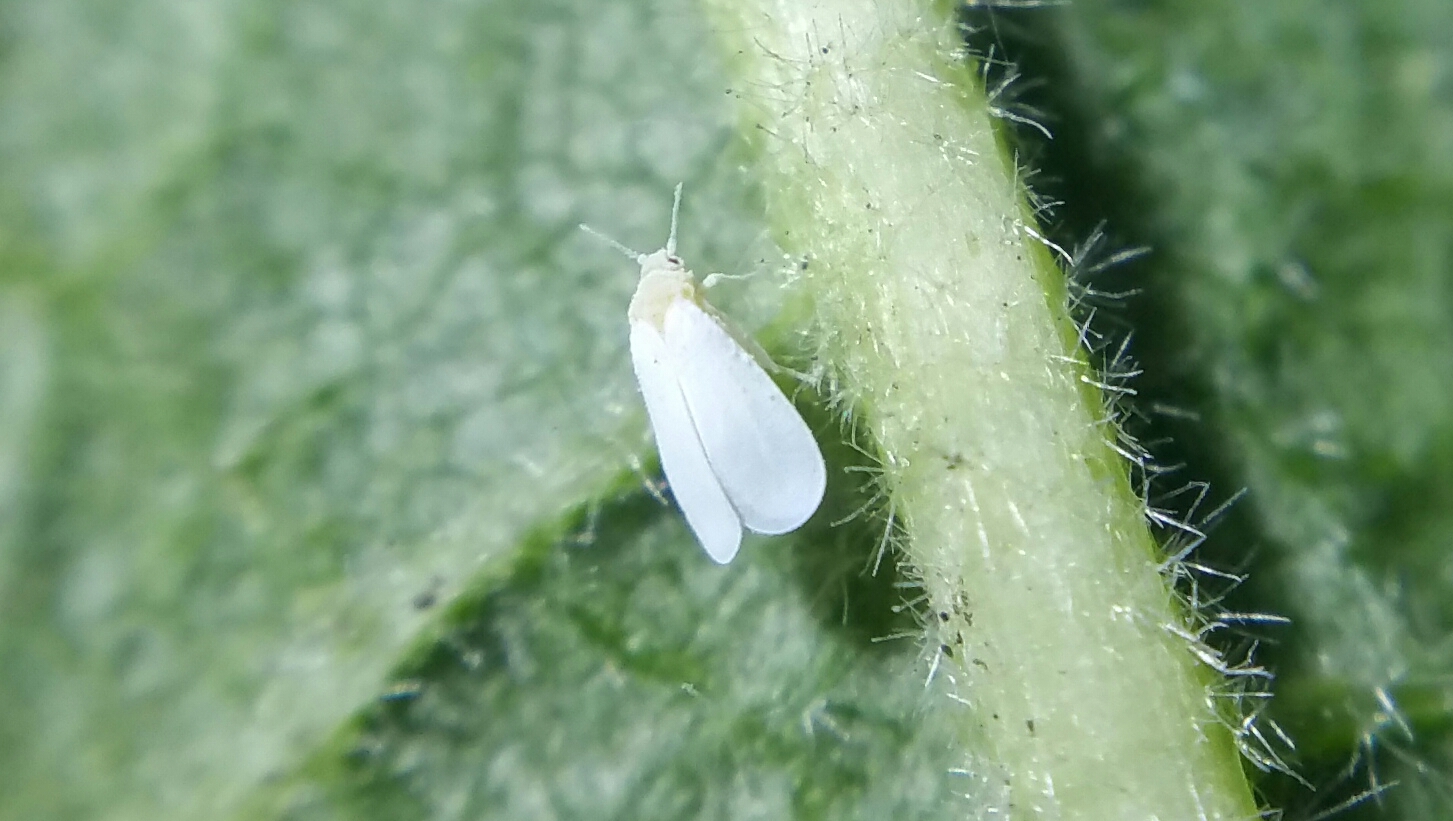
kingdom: Animalia
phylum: Arthropoda
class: Insecta
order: Hemiptera
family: Aleyrodidae
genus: Trialeurodes
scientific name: Trialeurodes vaporariorum
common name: Greenhouse white fly
